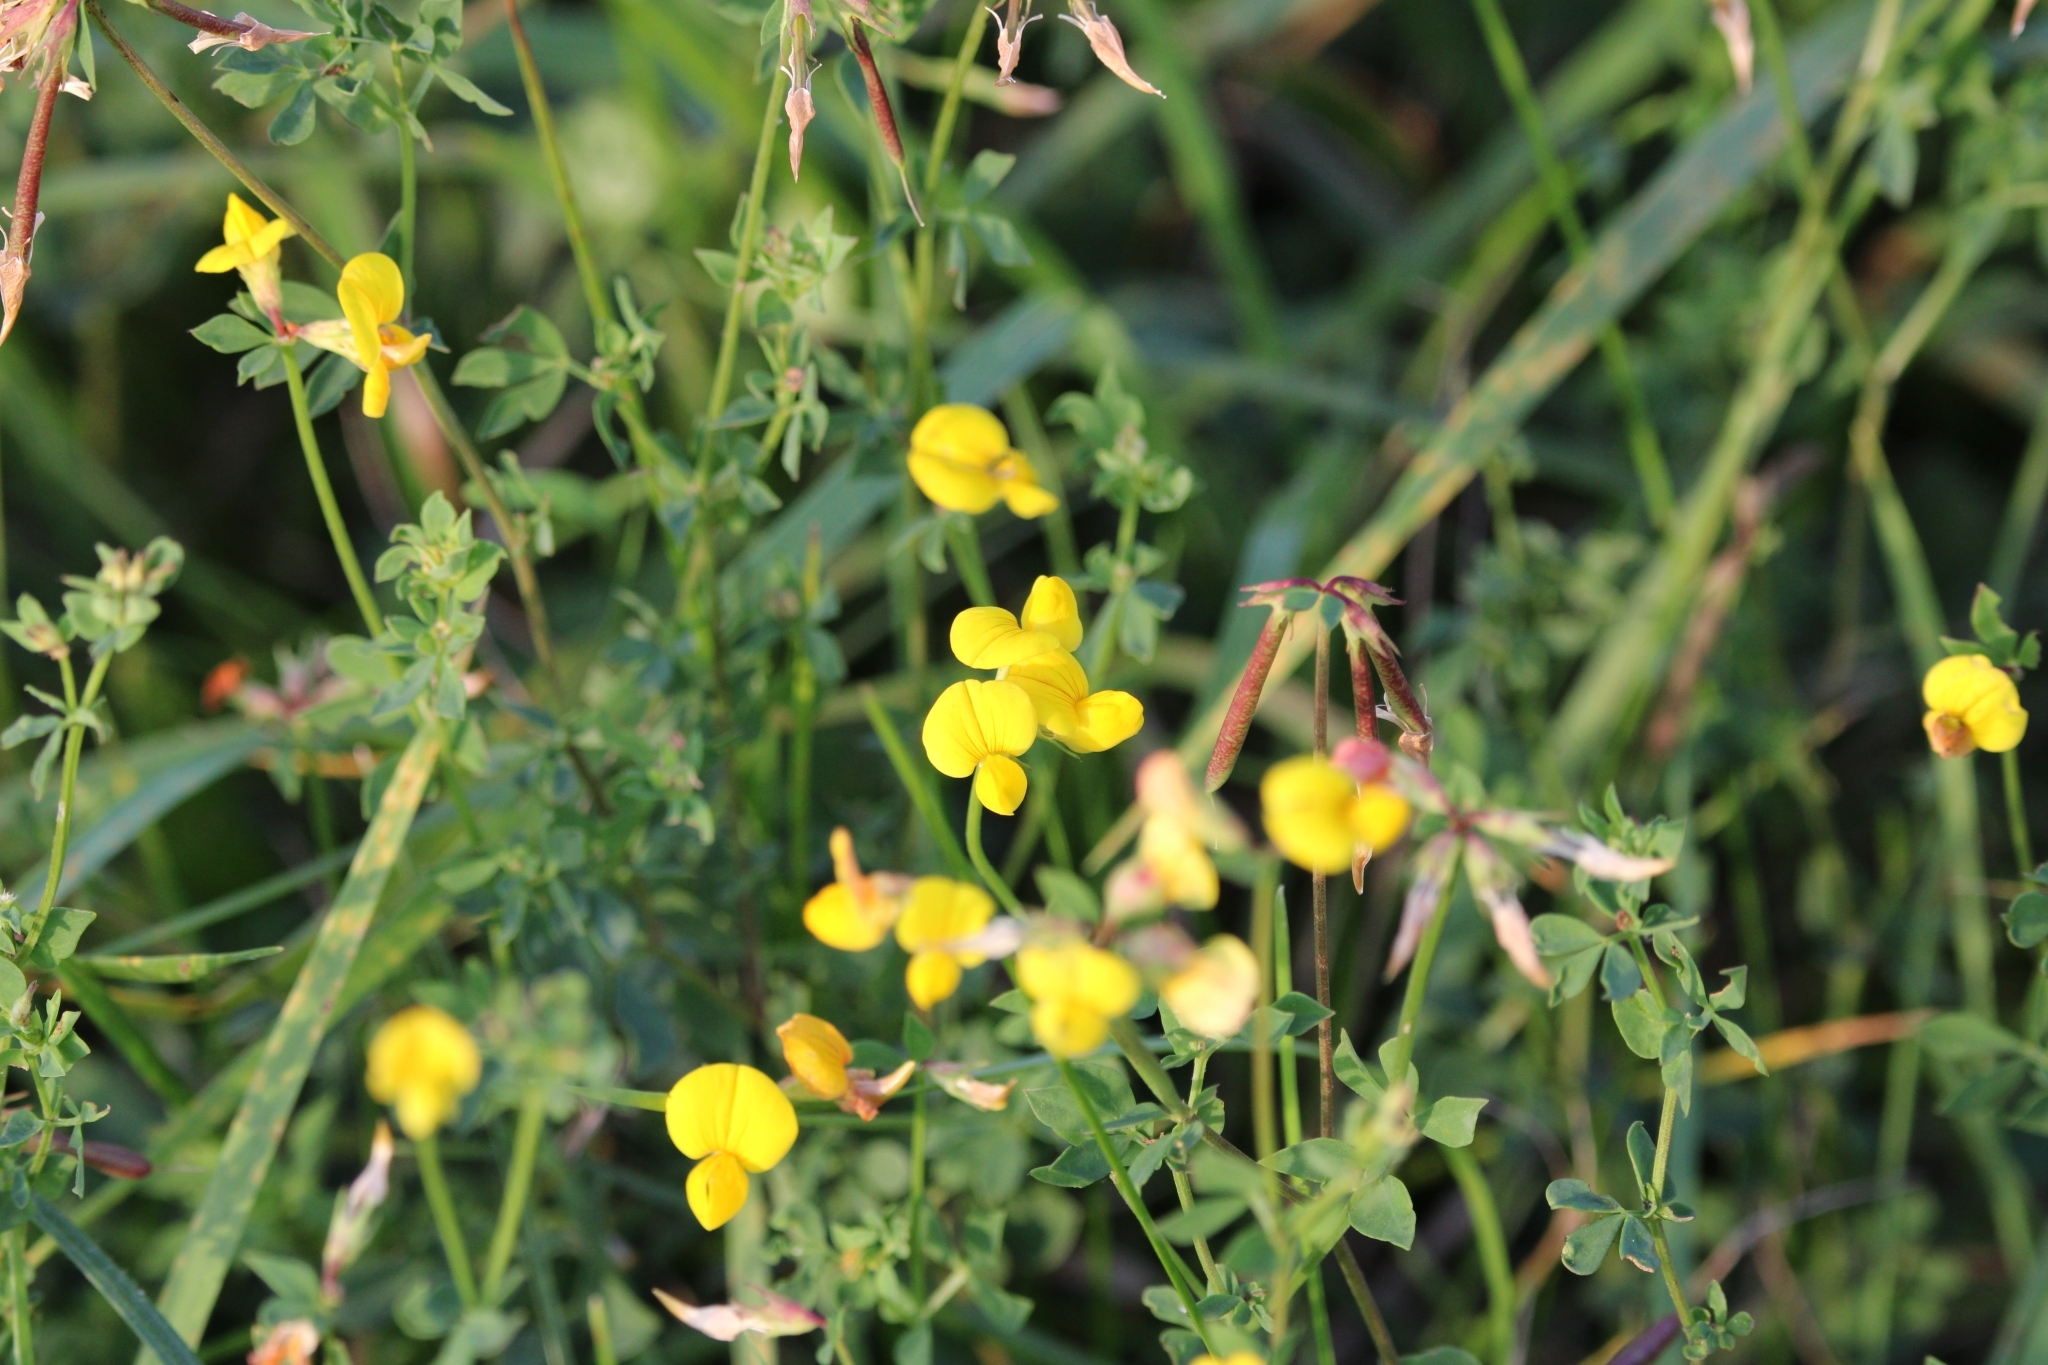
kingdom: Plantae
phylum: Tracheophyta
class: Magnoliopsida
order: Fabales
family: Fabaceae
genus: Lotus
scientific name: Lotus corniculatus
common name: Common bird's-foot-trefoil
